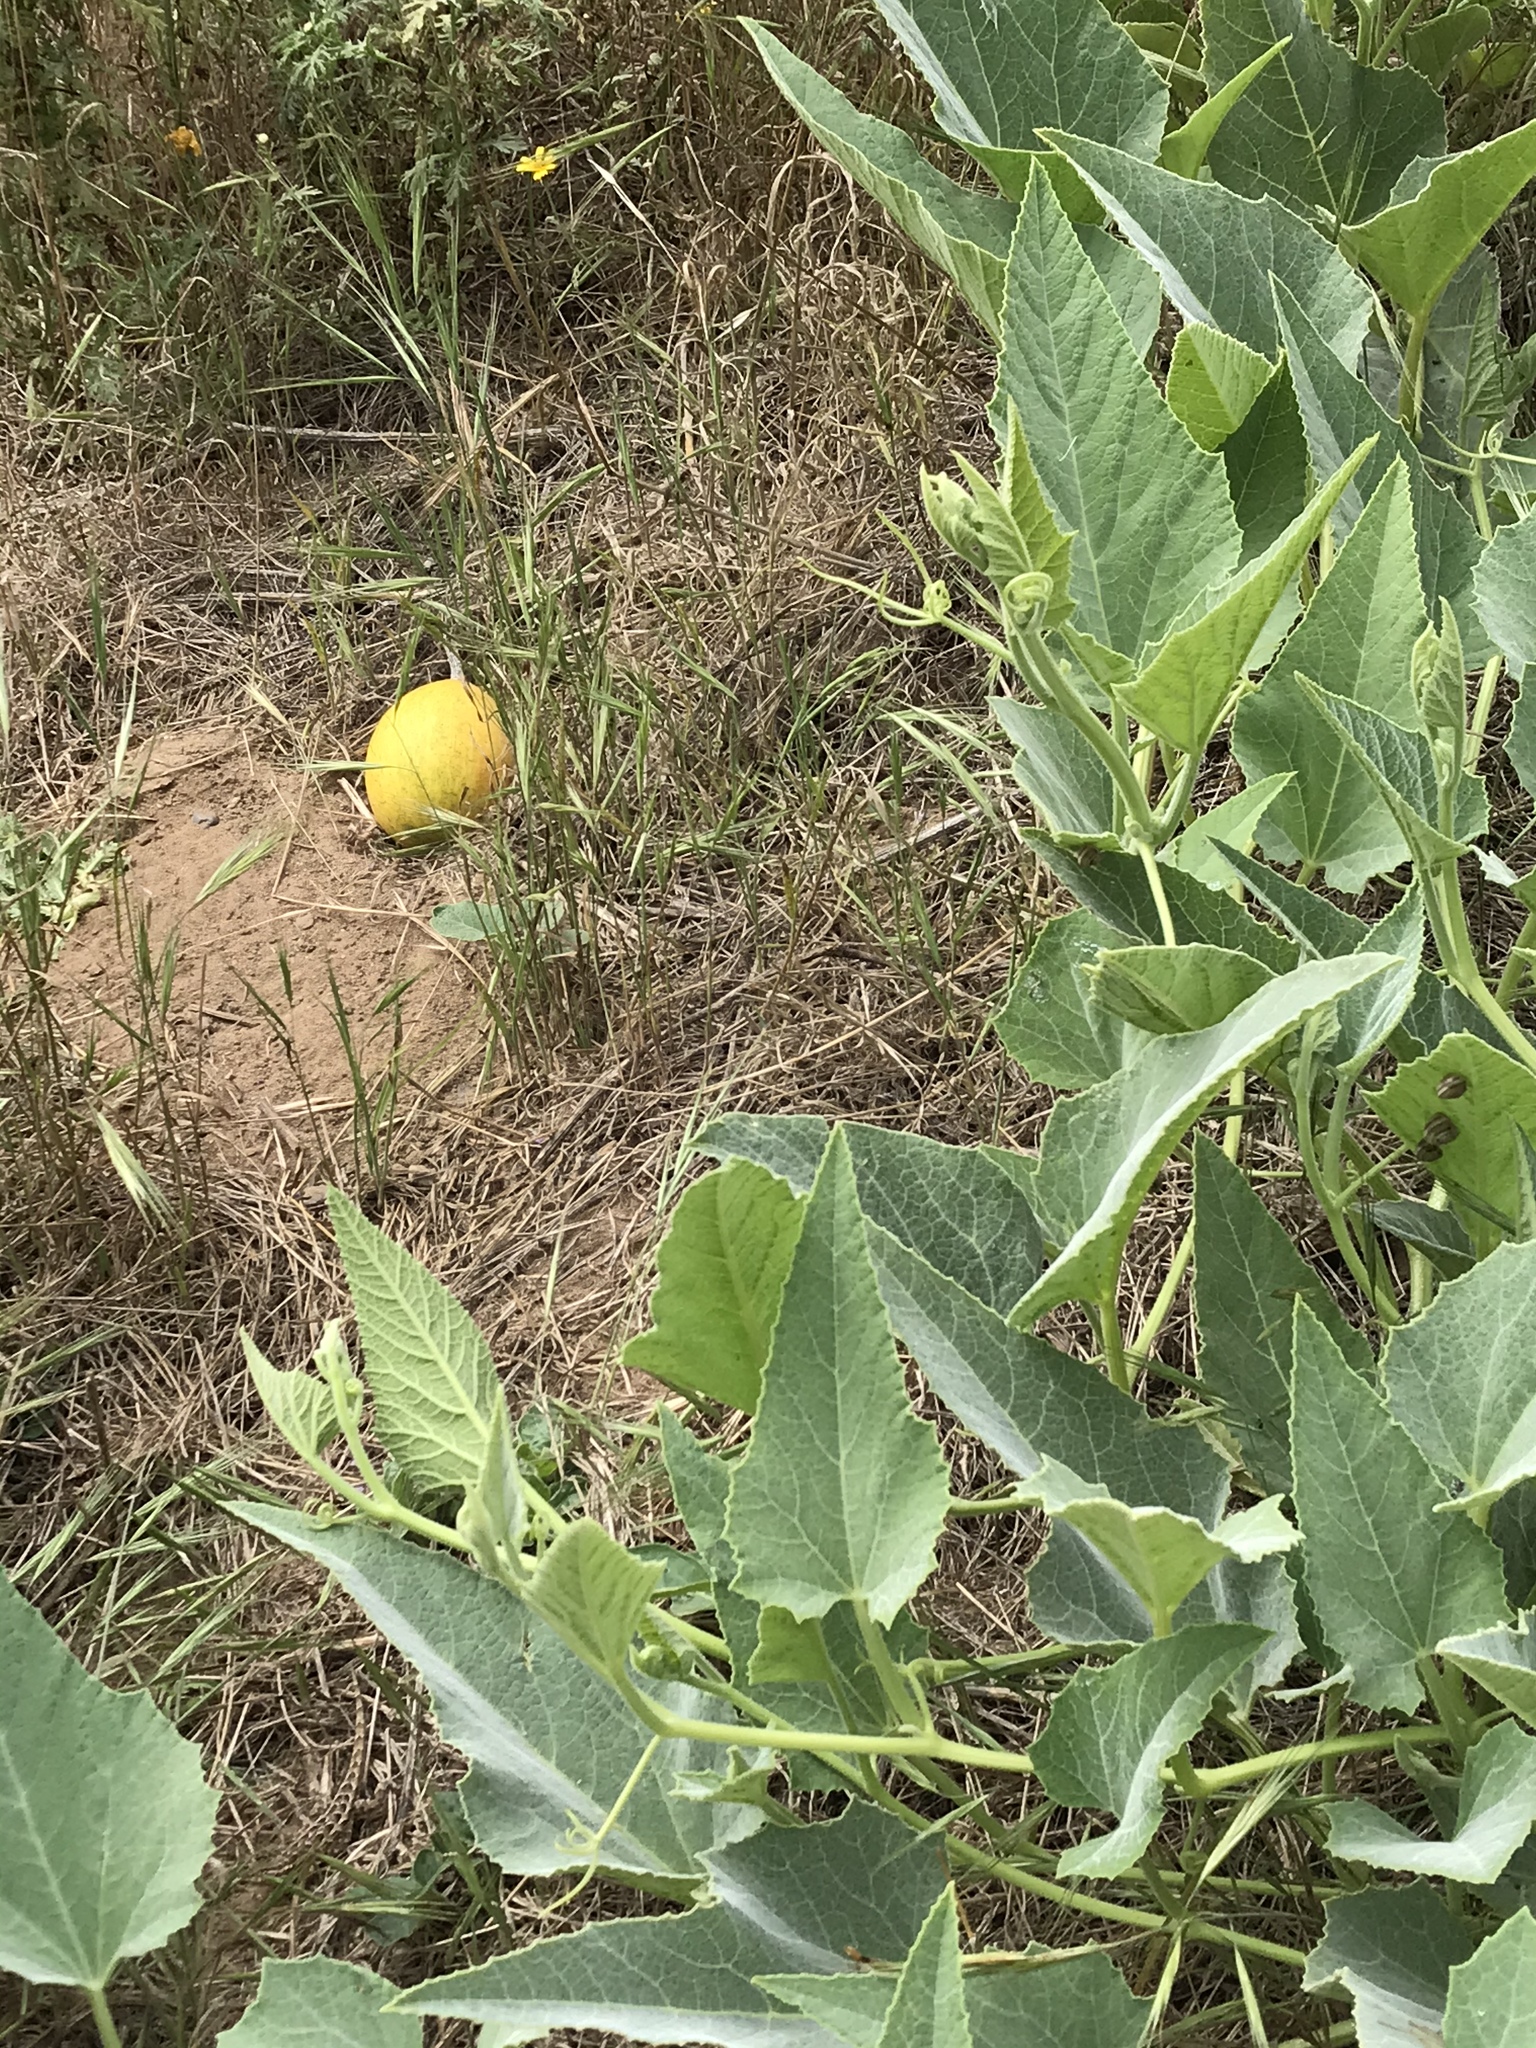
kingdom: Plantae
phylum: Tracheophyta
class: Magnoliopsida
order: Cucurbitales
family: Cucurbitaceae
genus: Cucurbita
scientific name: Cucurbita foetidissima
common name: Buffalo gourd
